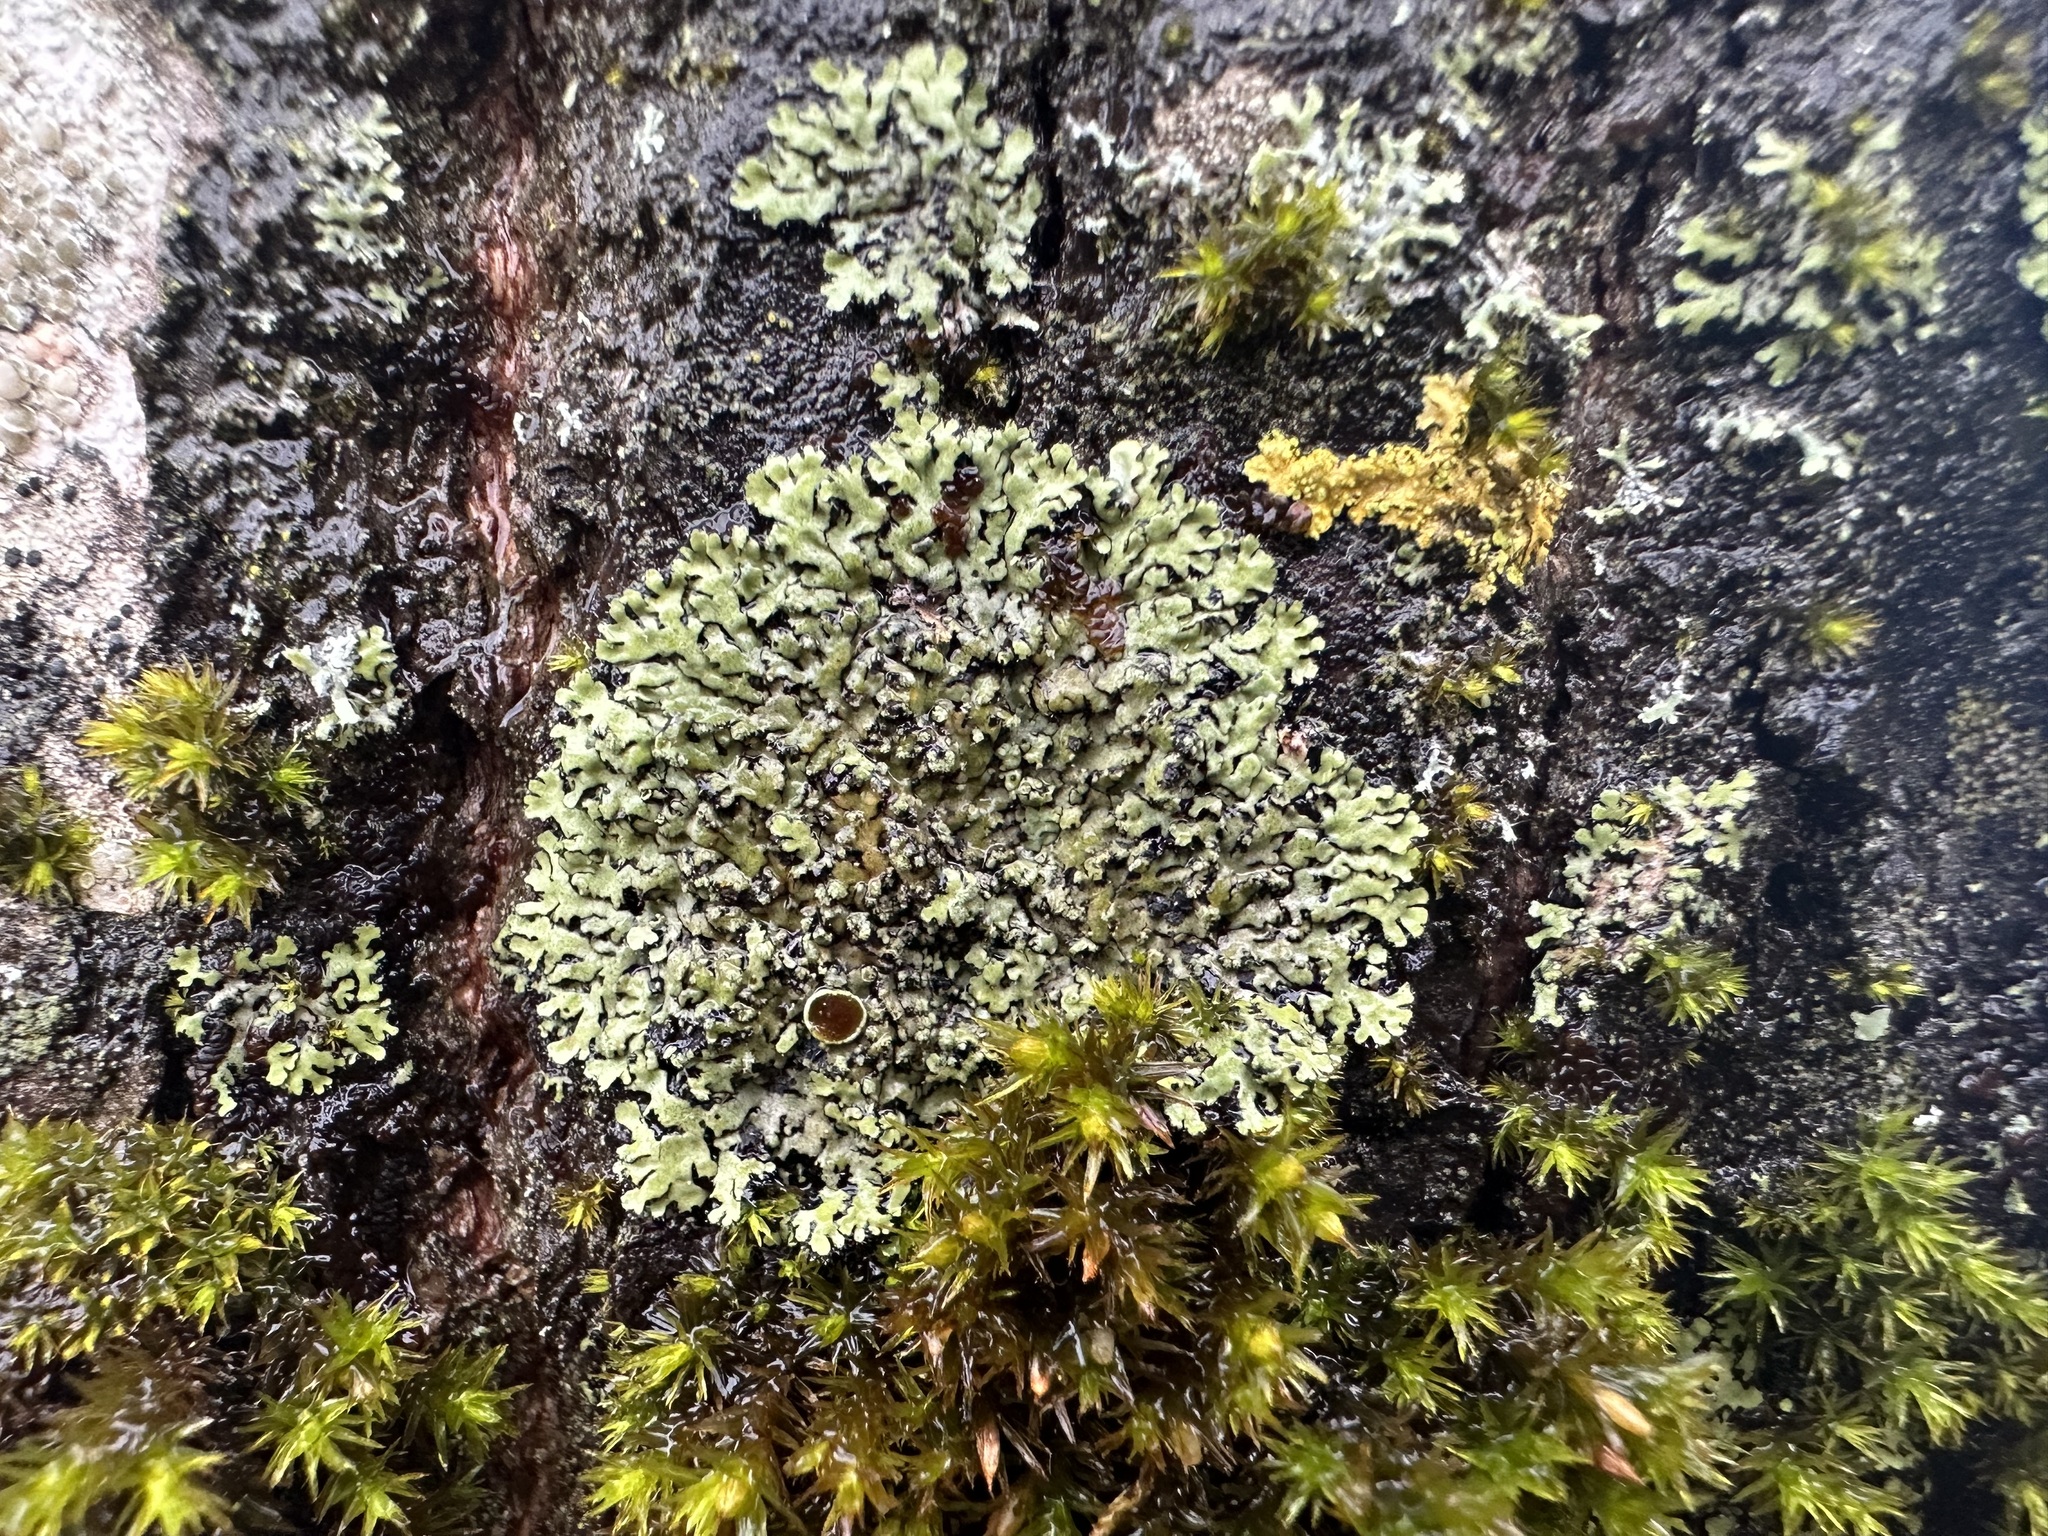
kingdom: Fungi
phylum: Ascomycota
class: Lecanoromycetes
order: Caliciales
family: Physciaceae
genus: Phaeophyscia
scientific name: Phaeophyscia orbicularis
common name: Mealy shadow lichen
